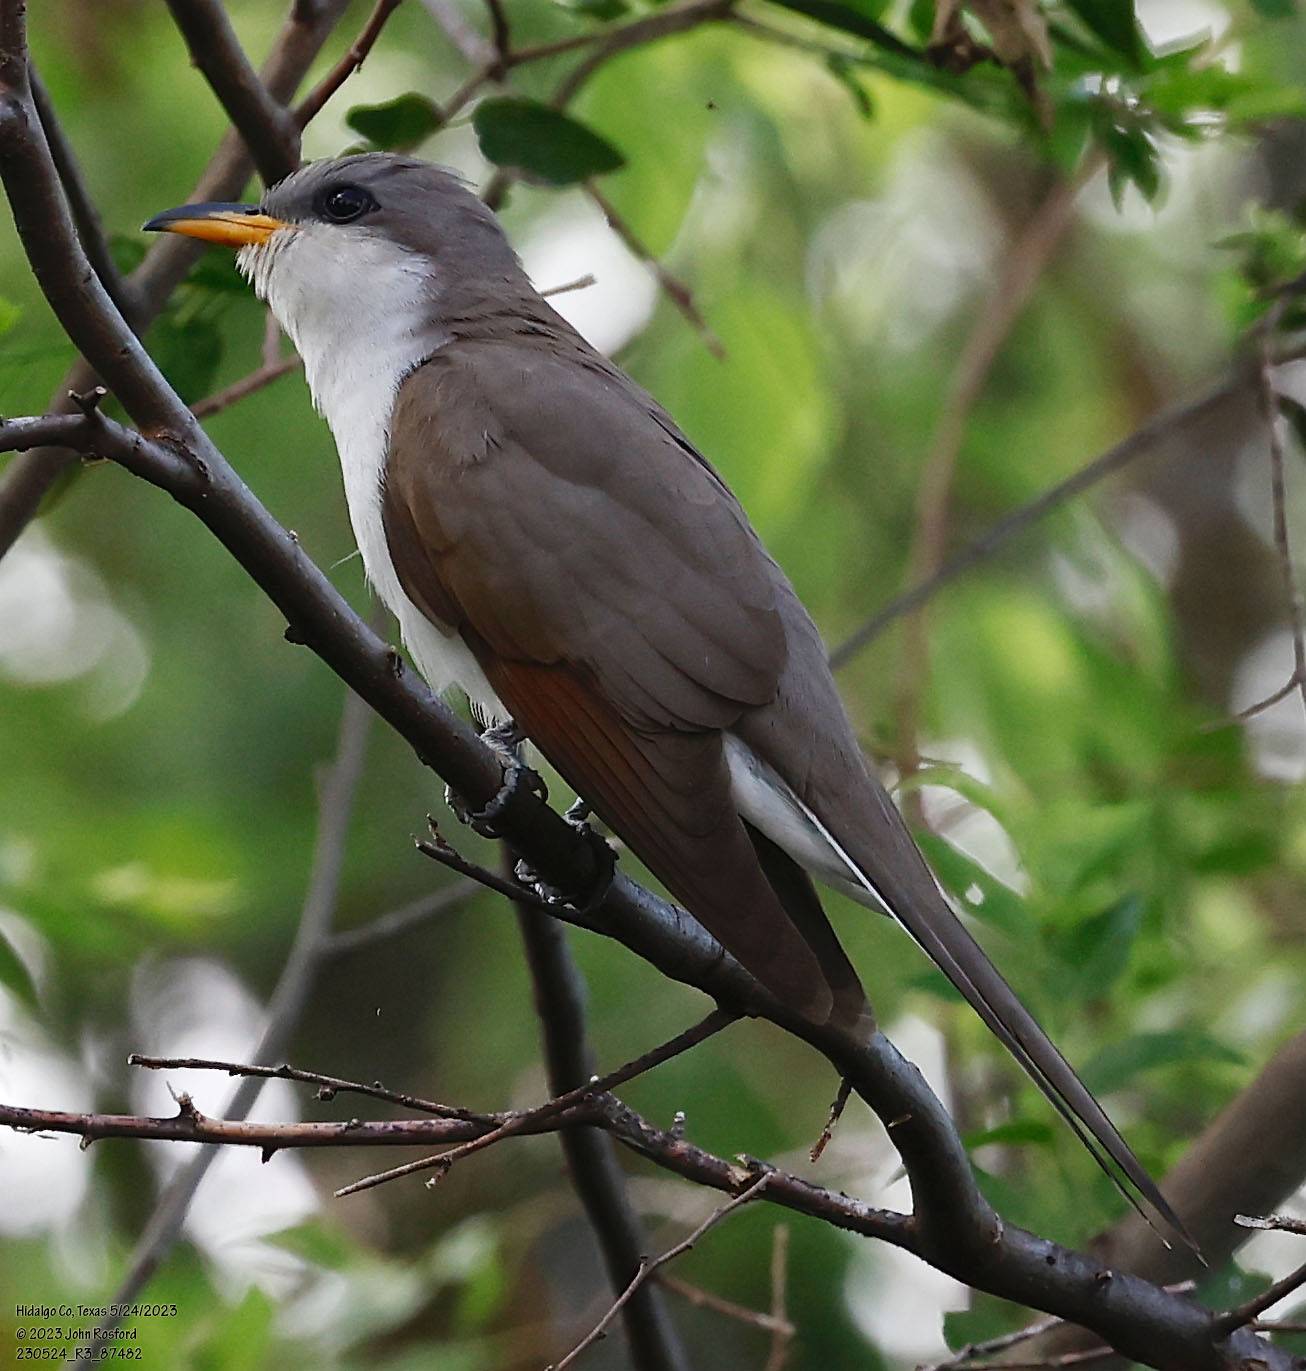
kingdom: Animalia
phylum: Chordata
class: Aves
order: Cuculiformes
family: Cuculidae
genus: Coccyzus
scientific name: Coccyzus americanus
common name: Yellow-billed cuckoo
